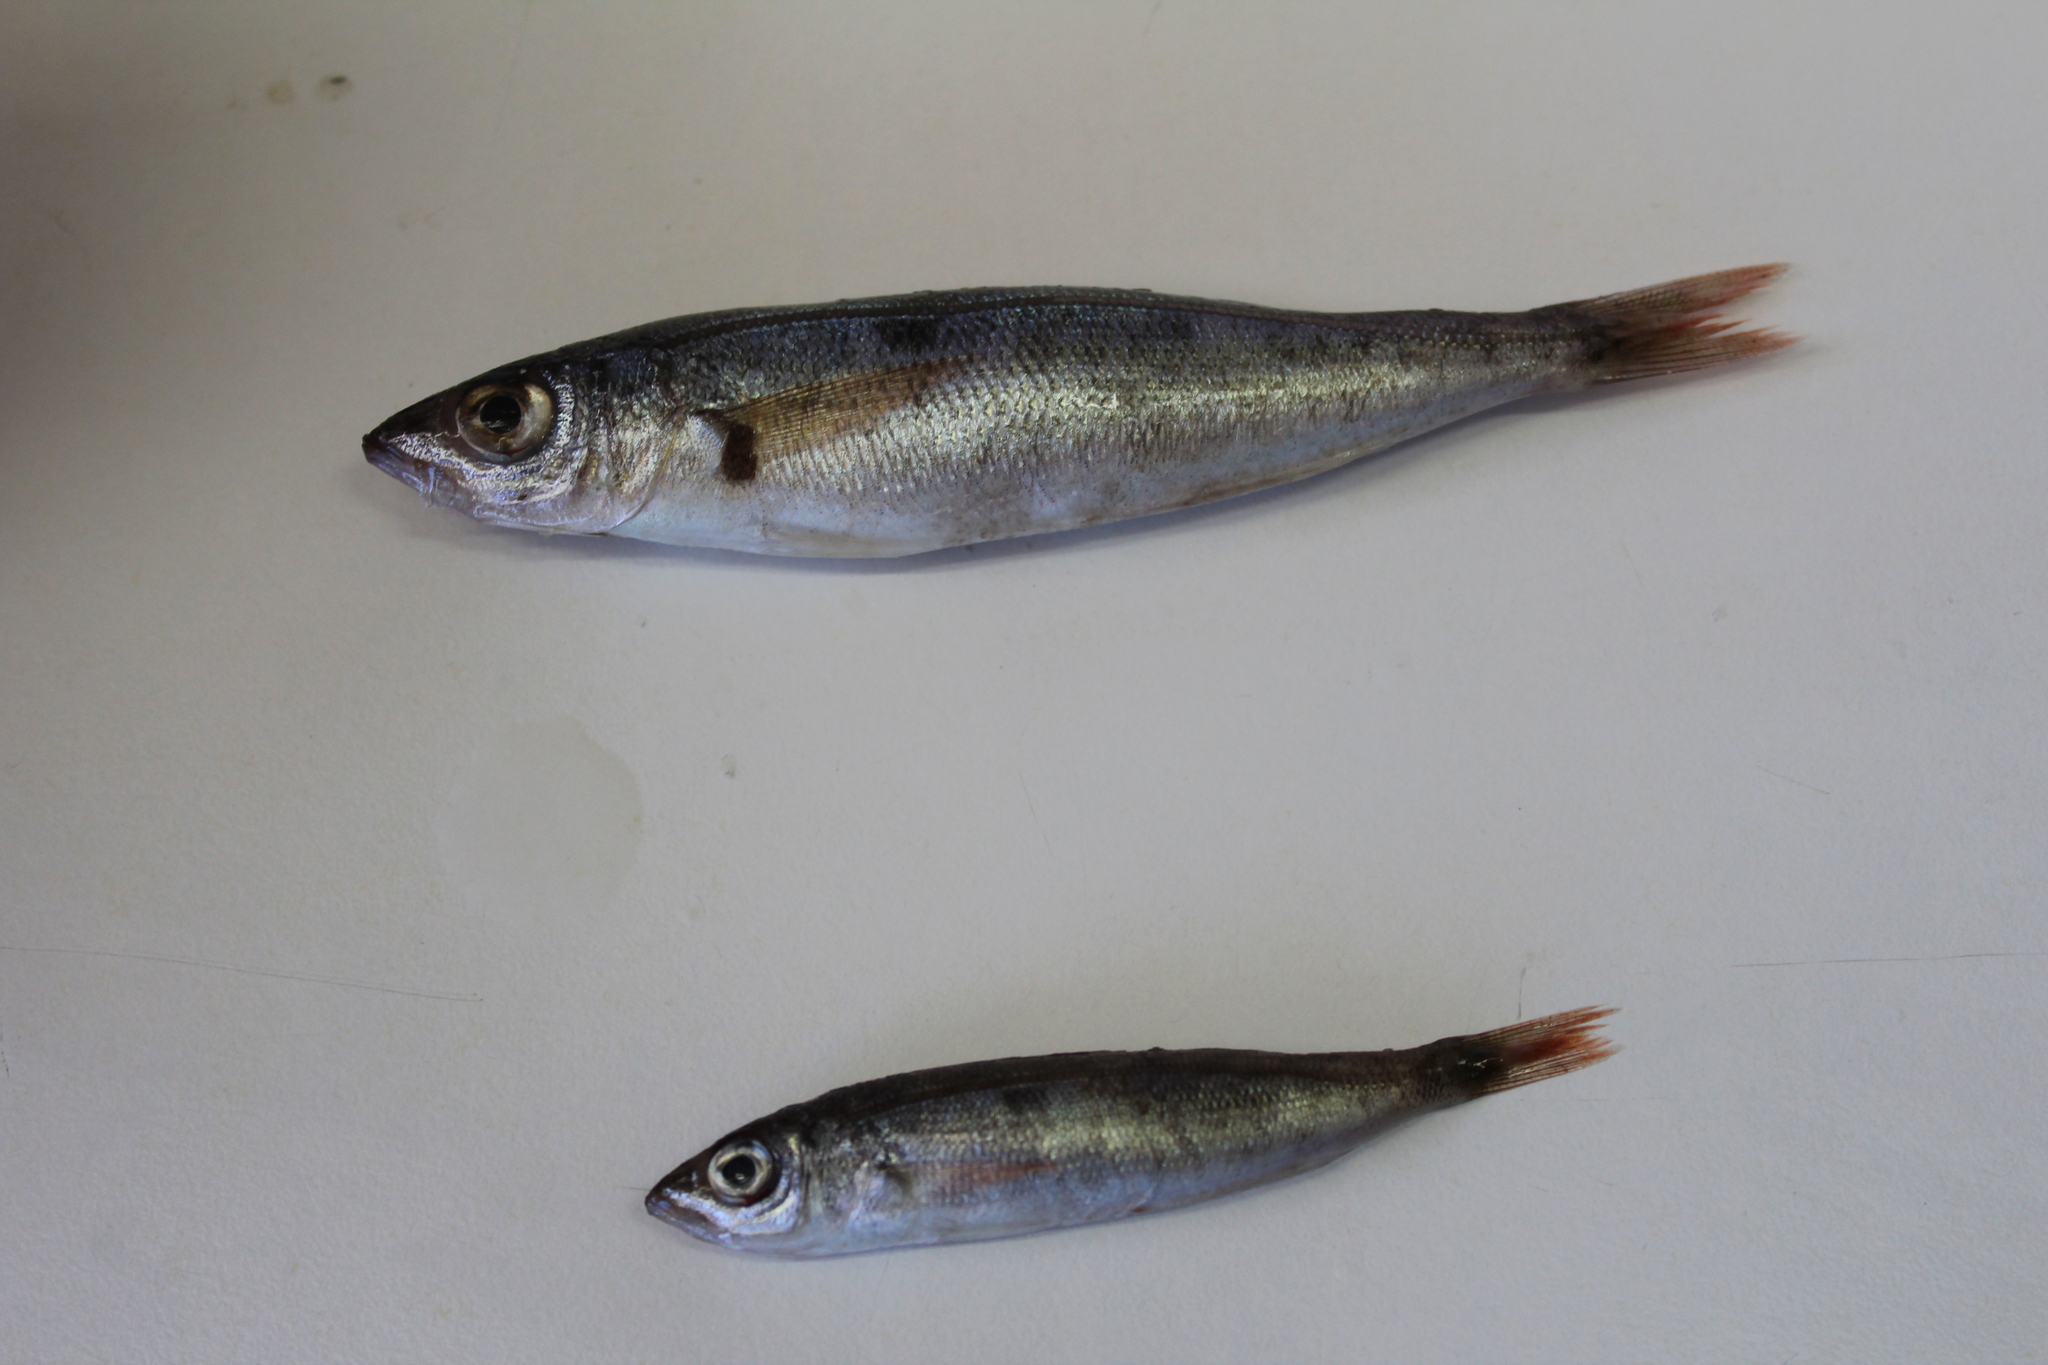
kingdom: Animalia
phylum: Chordata
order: Perciformes
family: Sparidae
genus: Spicara
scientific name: Spicara smaris
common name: Picarel
